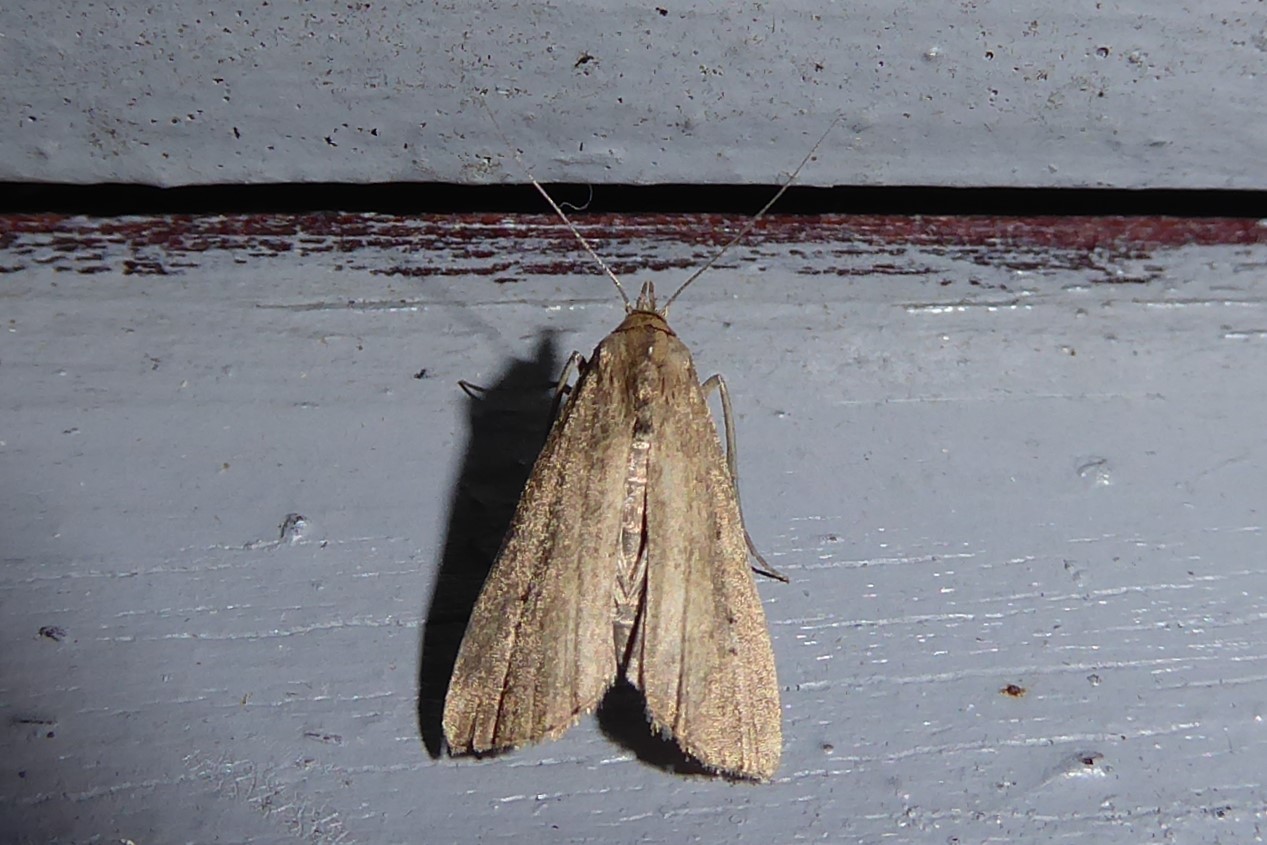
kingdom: Animalia
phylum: Arthropoda
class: Insecta
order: Lepidoptera
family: Erebidae
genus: Schrankia
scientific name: Schrankia costaestrigalis
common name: Pinion-streaked snout
